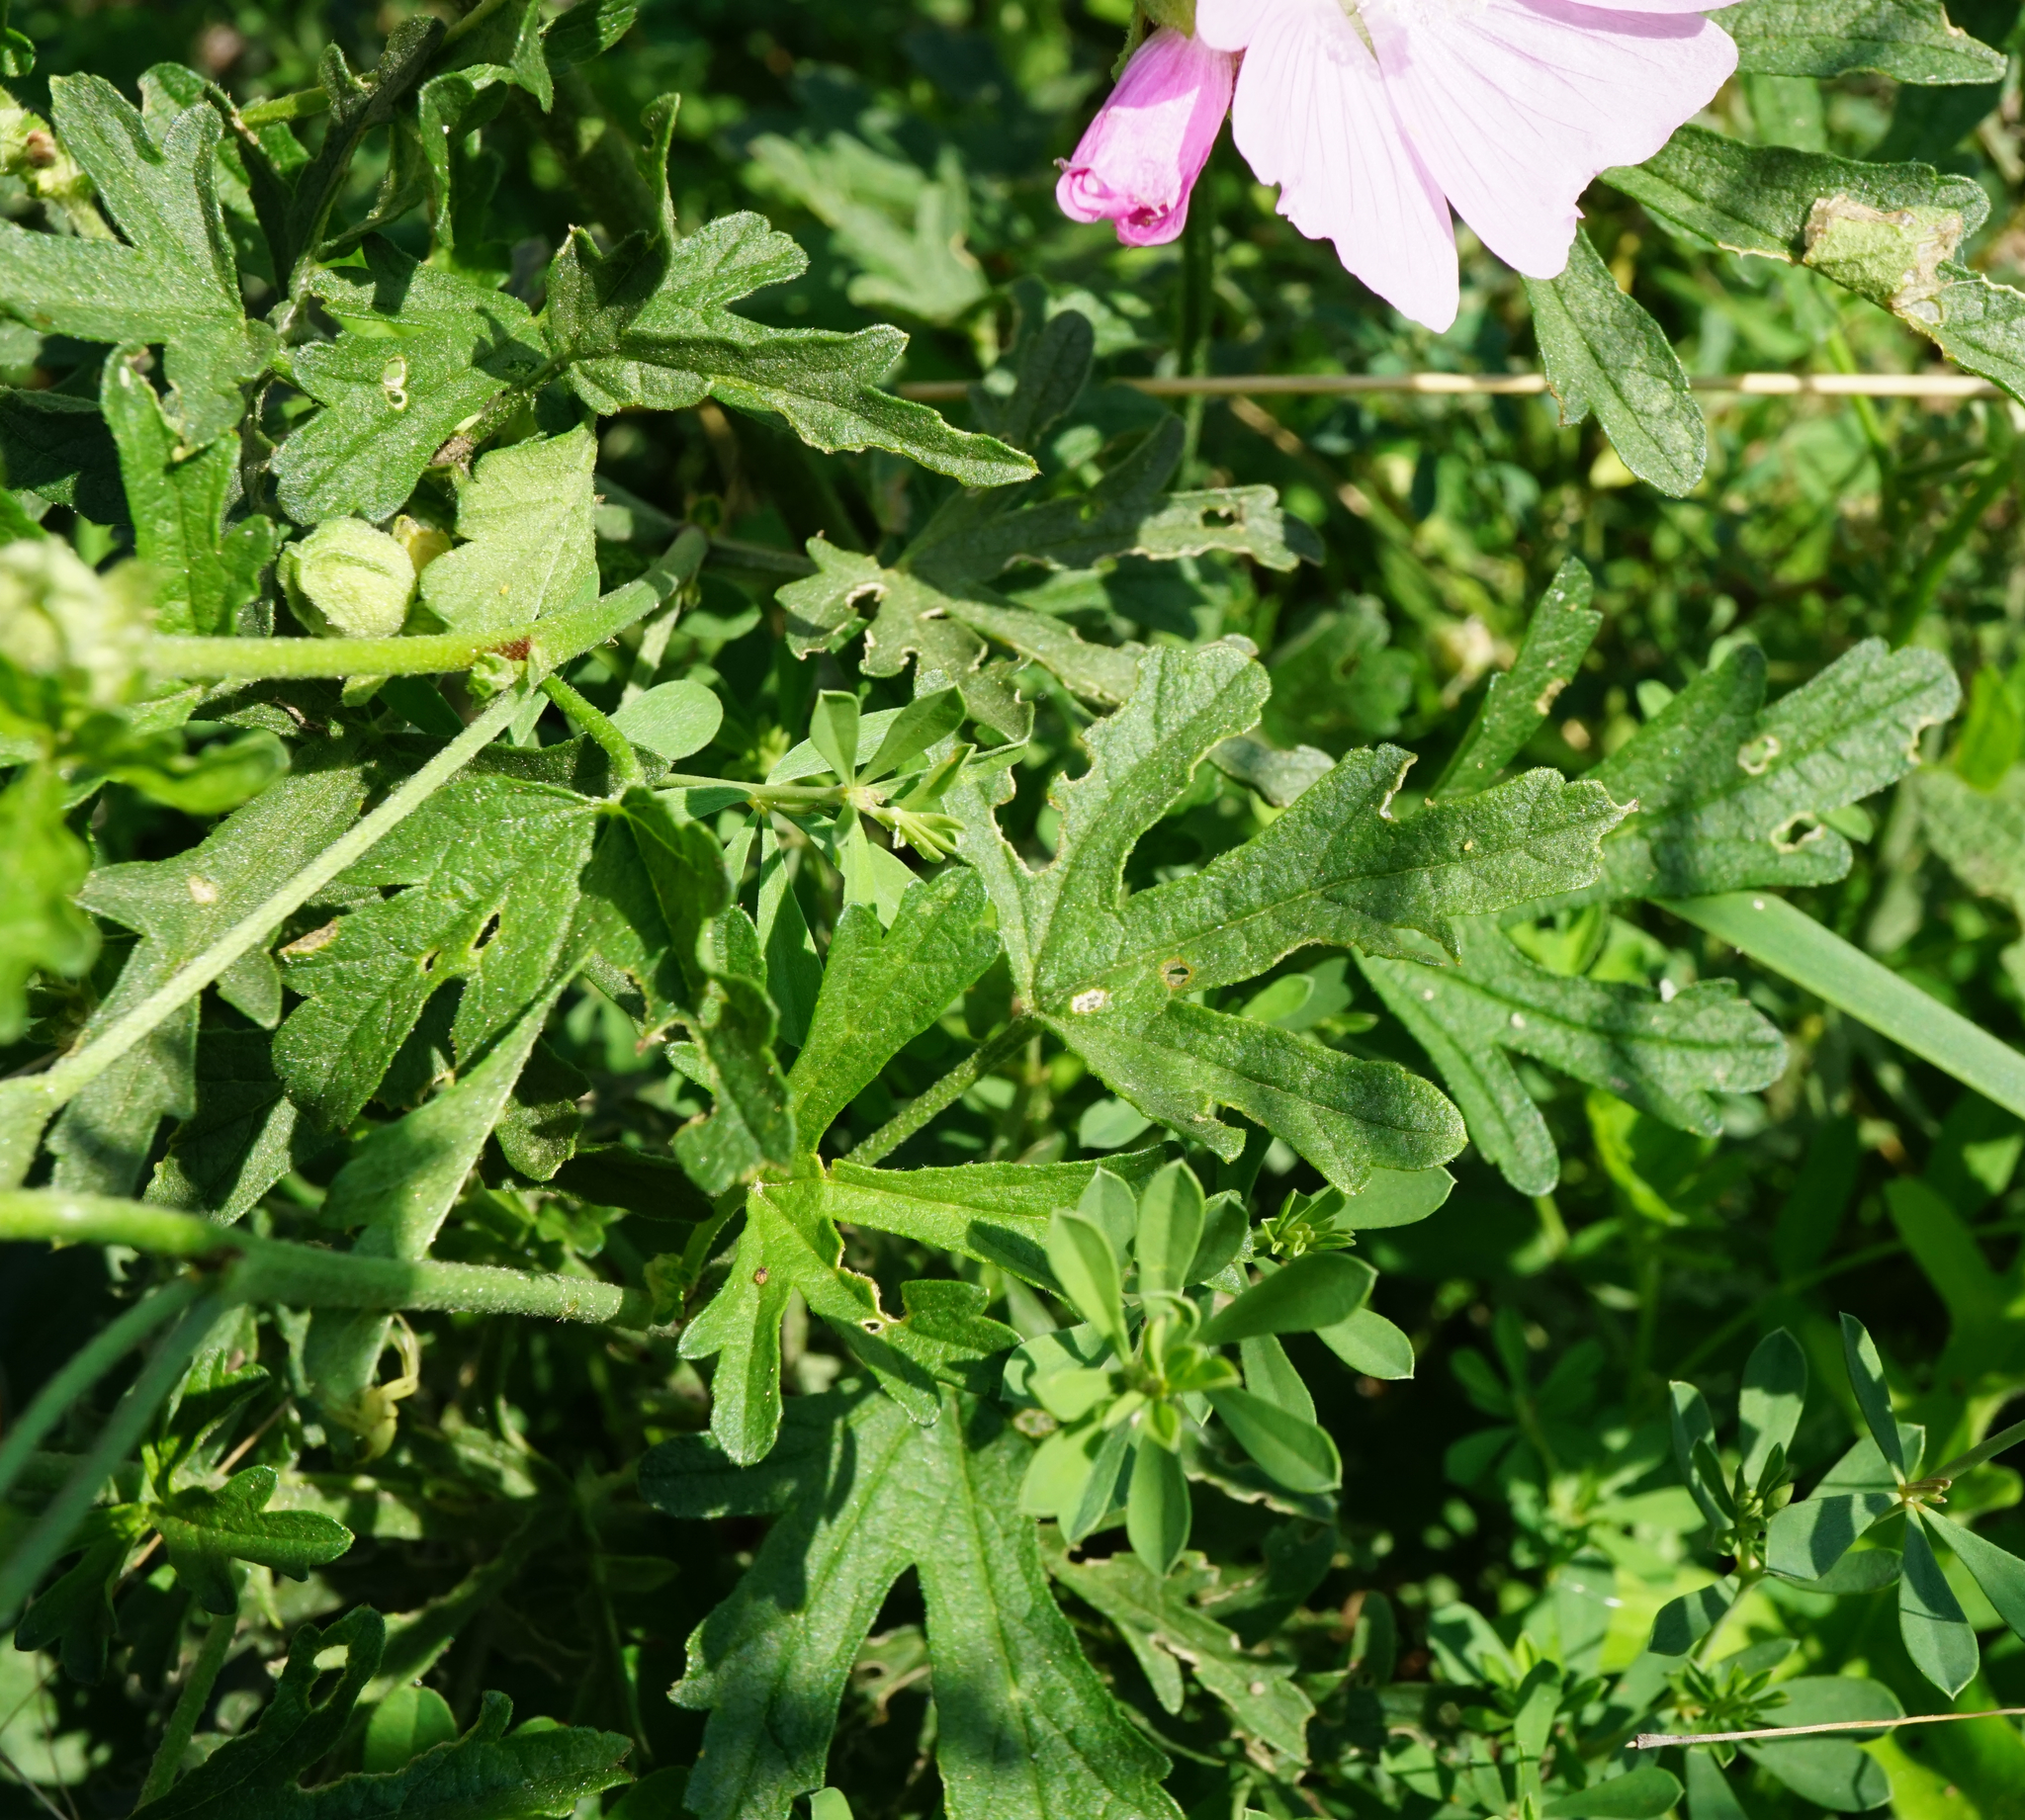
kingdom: Plantae
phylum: Tracheophyta
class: Magnoliopsida
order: Malvales
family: Malvaceae
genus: Malva
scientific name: Malva alcea
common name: Greater musk-mallow
